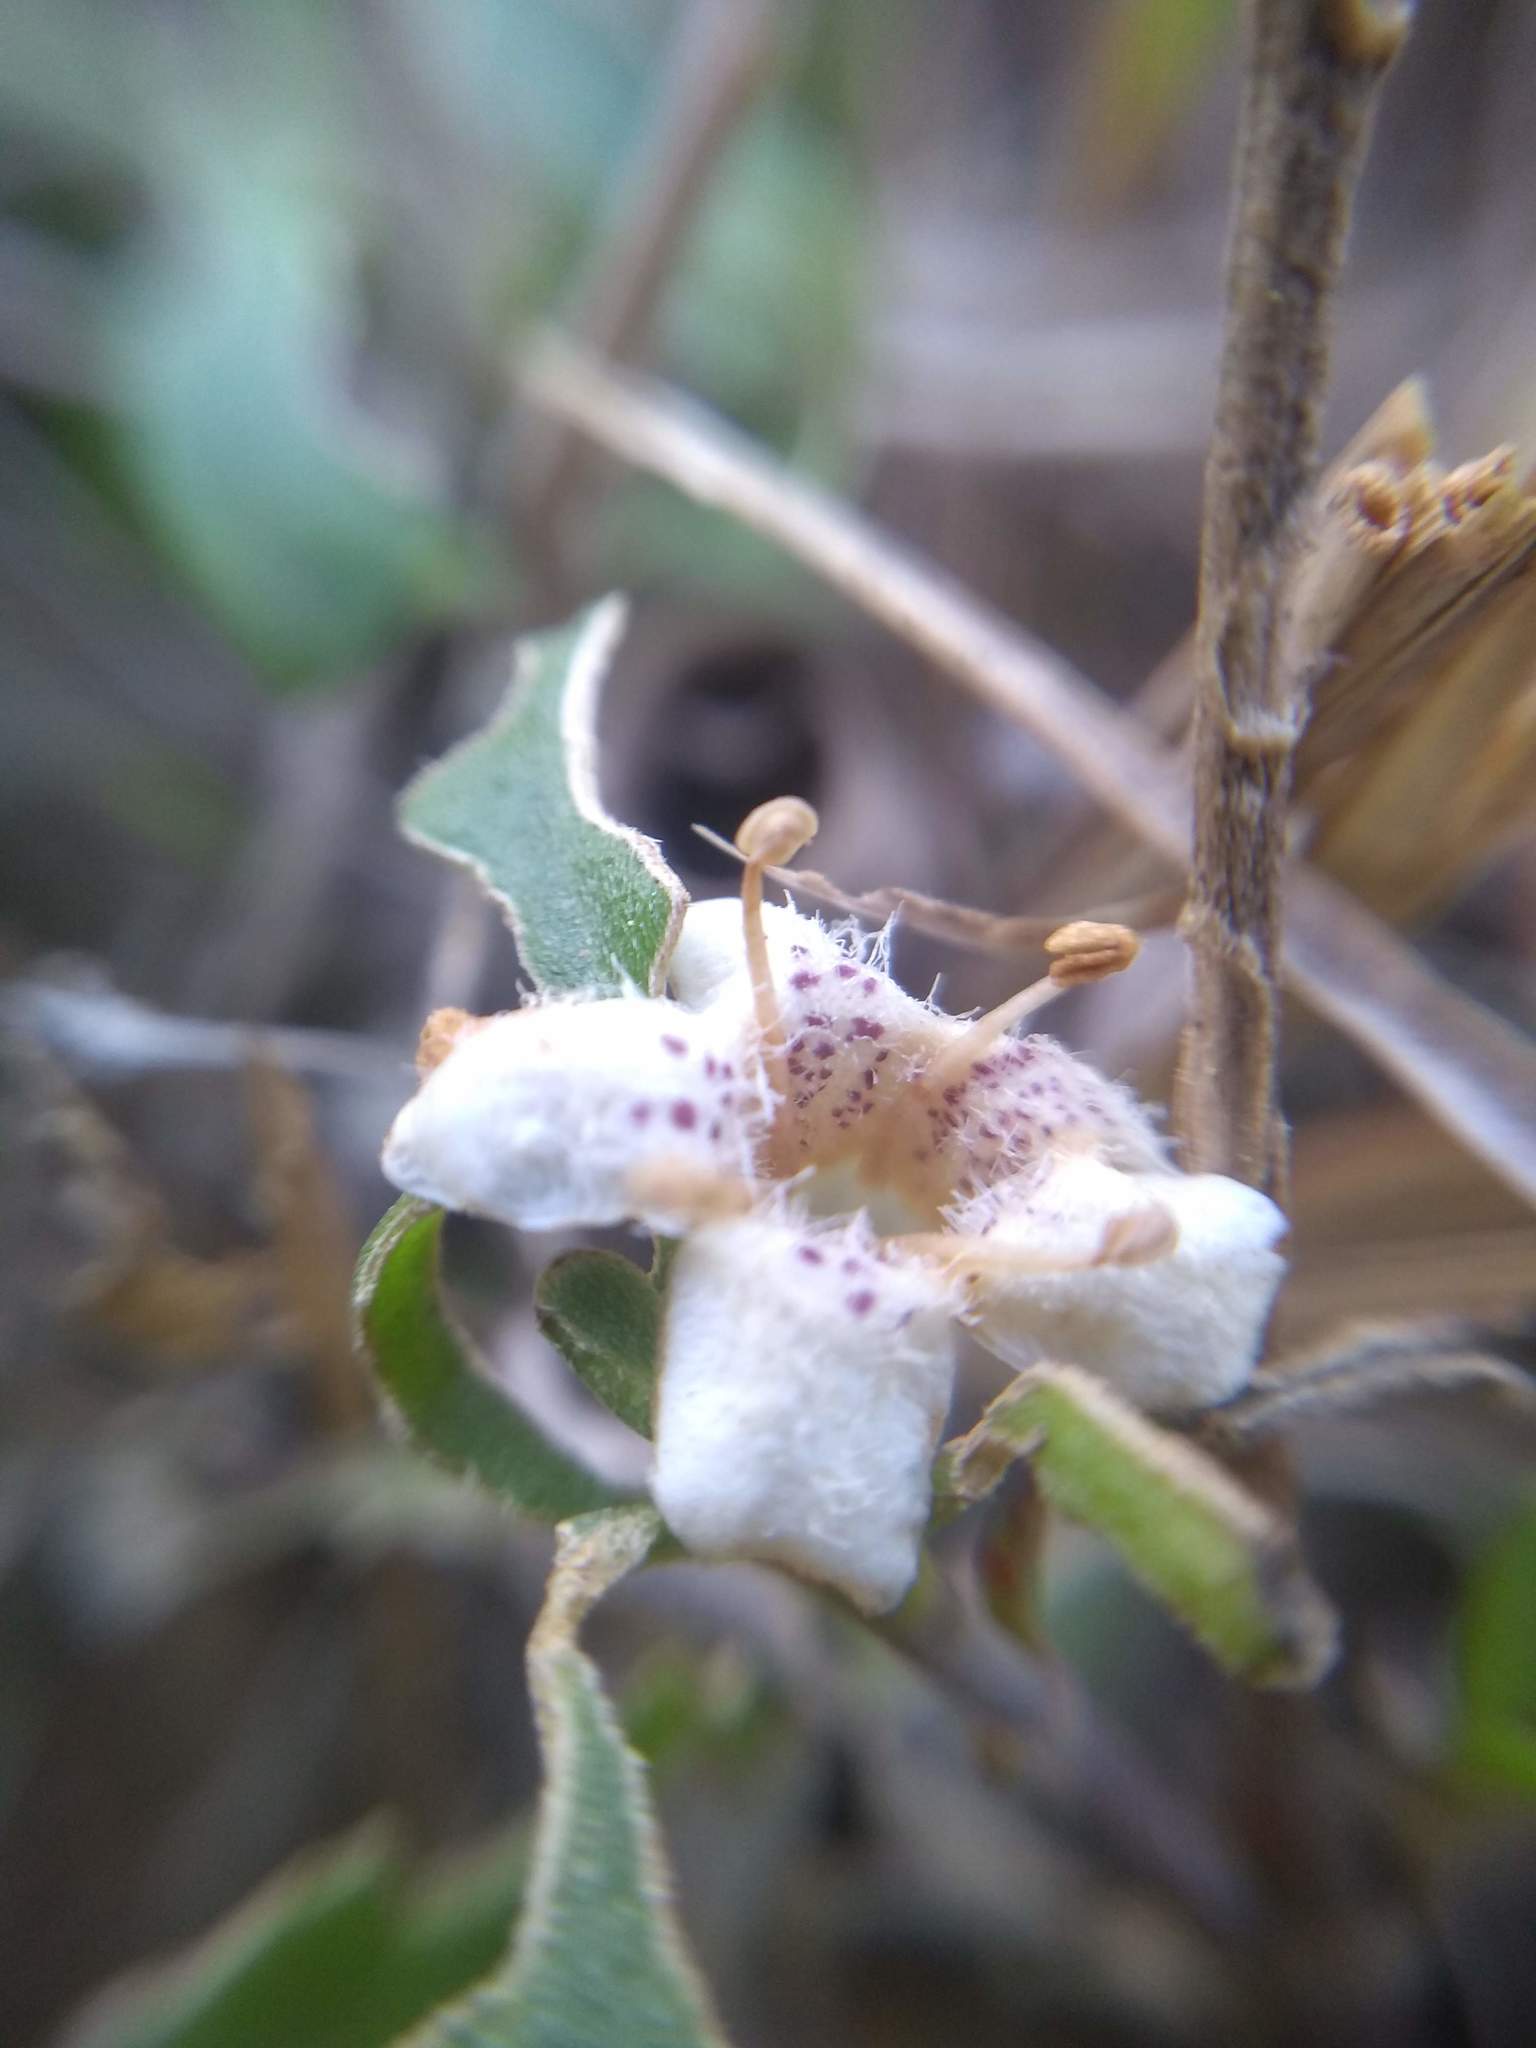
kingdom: Plantae
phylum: Tracheophyta
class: Magnoliopsida
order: Lamiales
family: Scrophulariaceae
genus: Myoporum
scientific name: Myoporum laetum
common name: Ngaio tree
